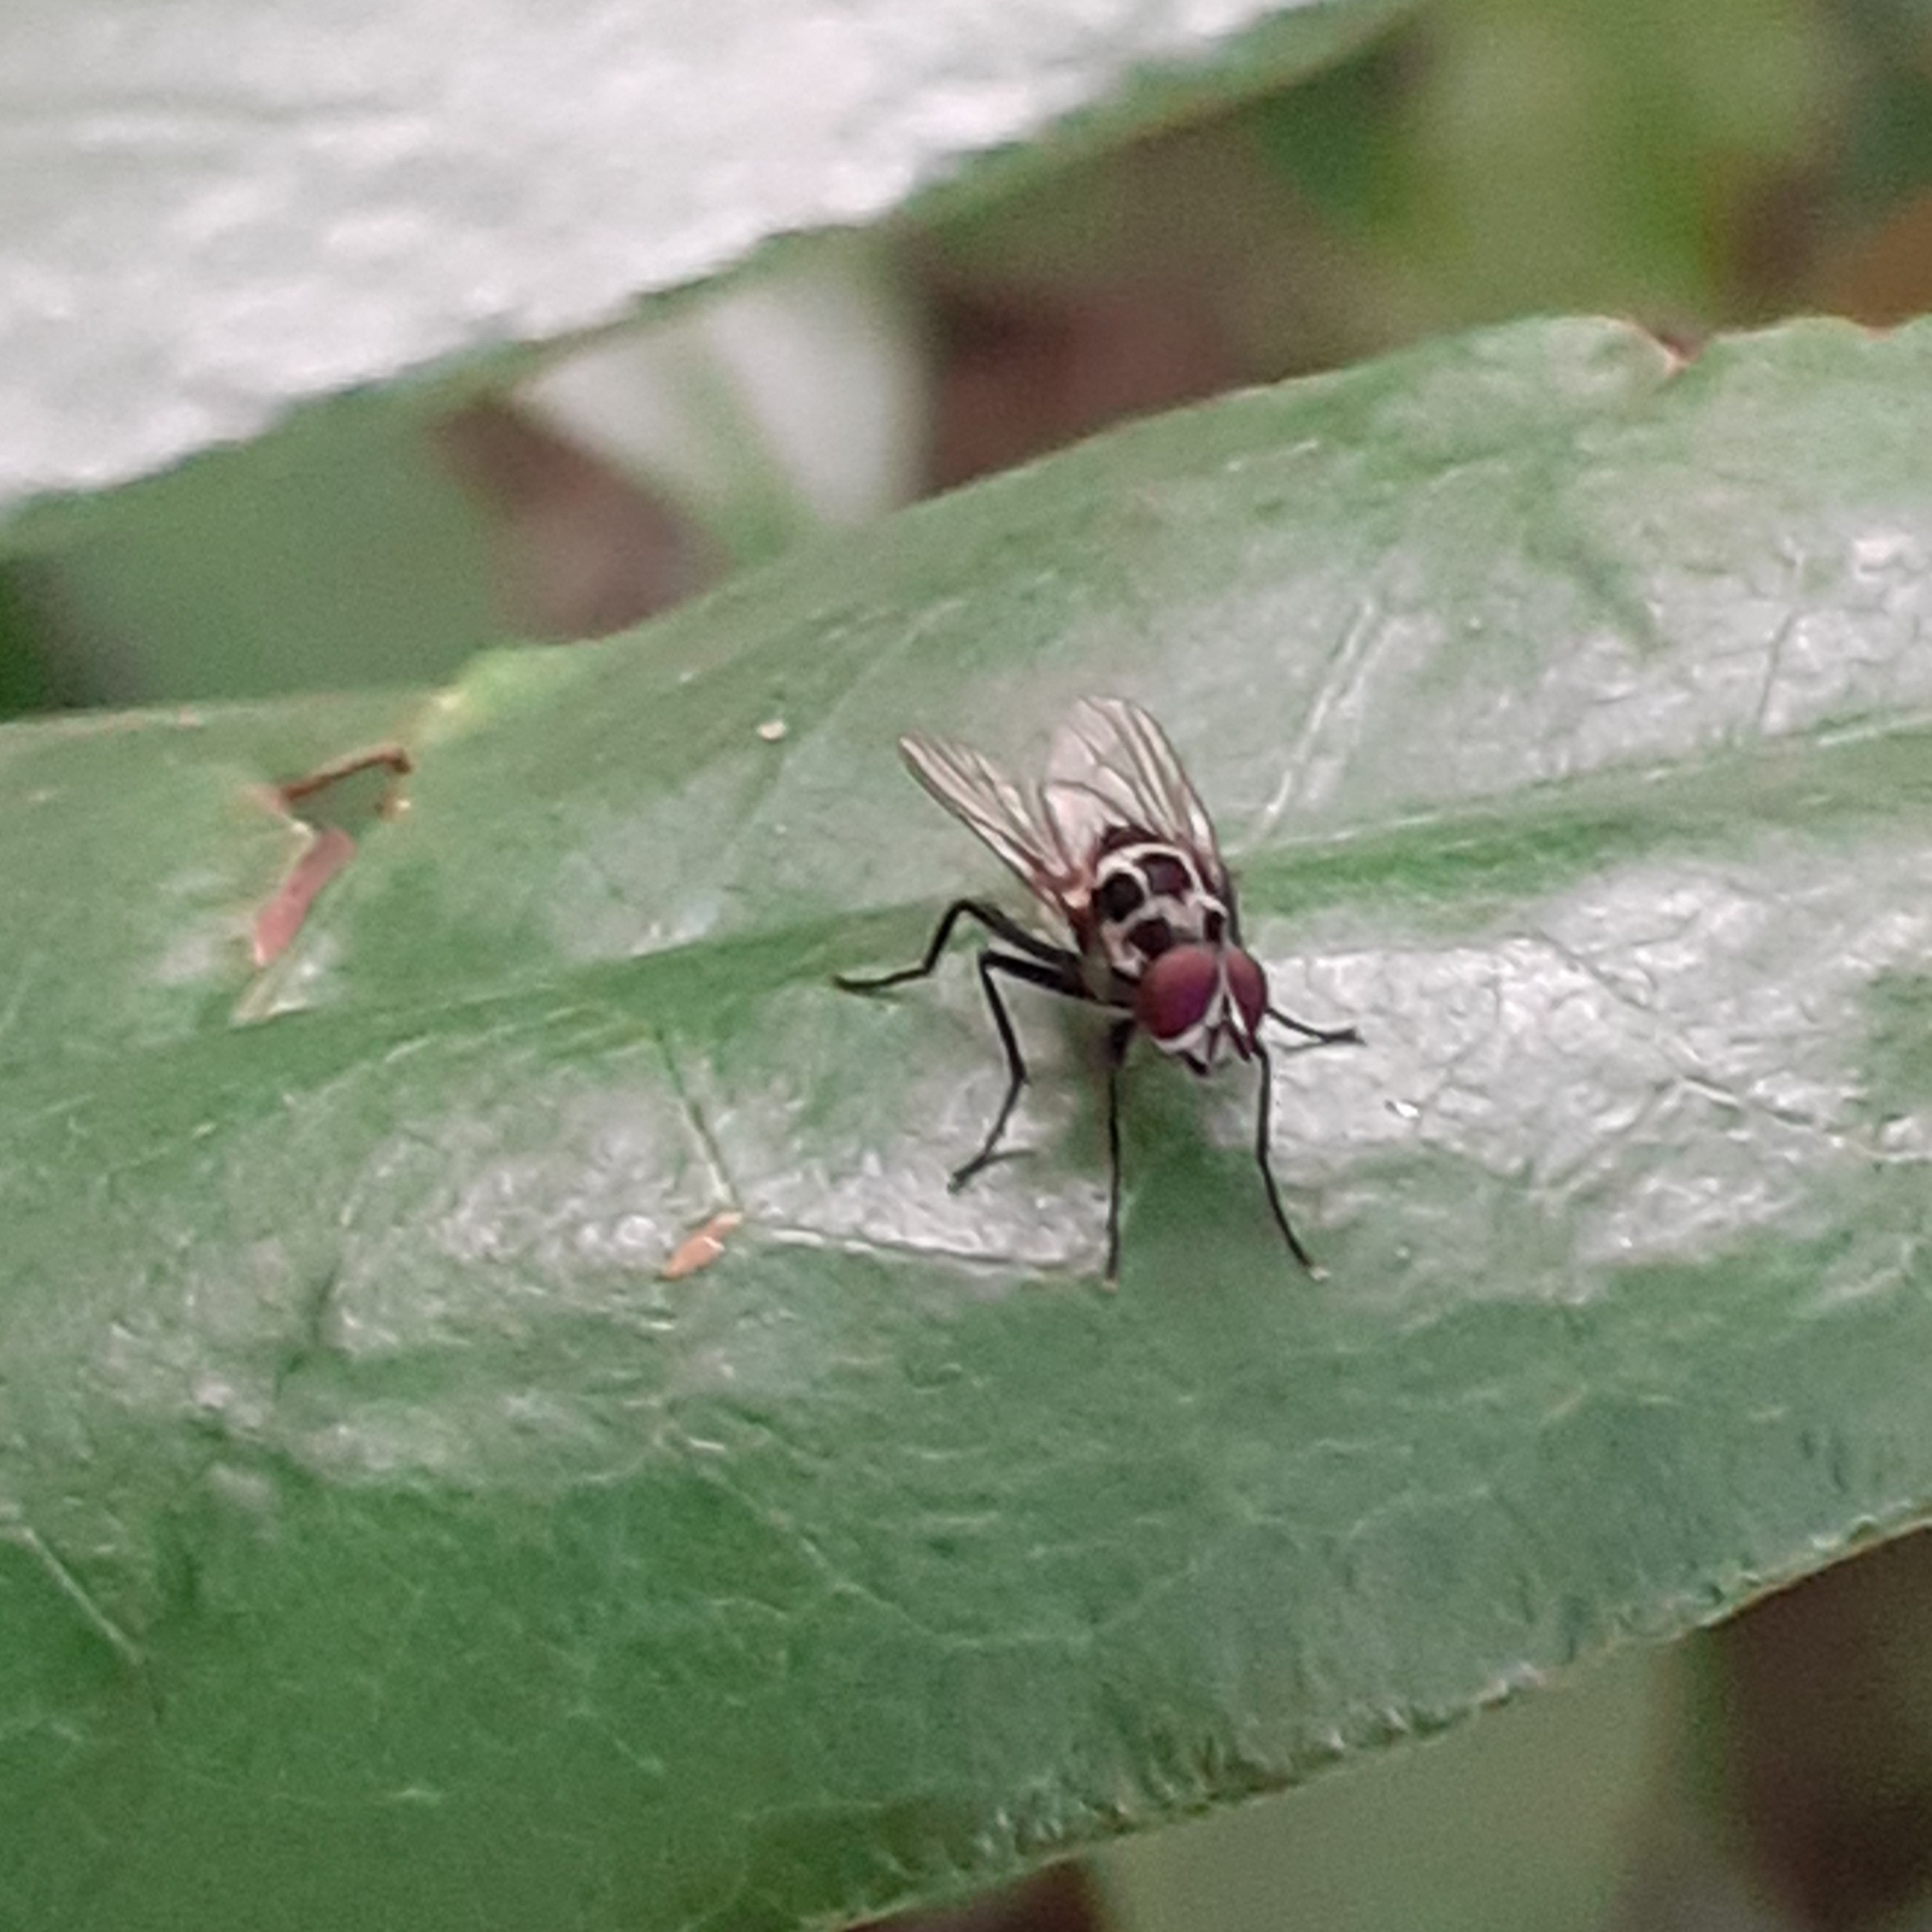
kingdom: Animalia
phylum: Arthropoda
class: Insecta
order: Diptera
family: Anthomyiidae
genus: Anthomyia
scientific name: Anthomyia pluvialis
